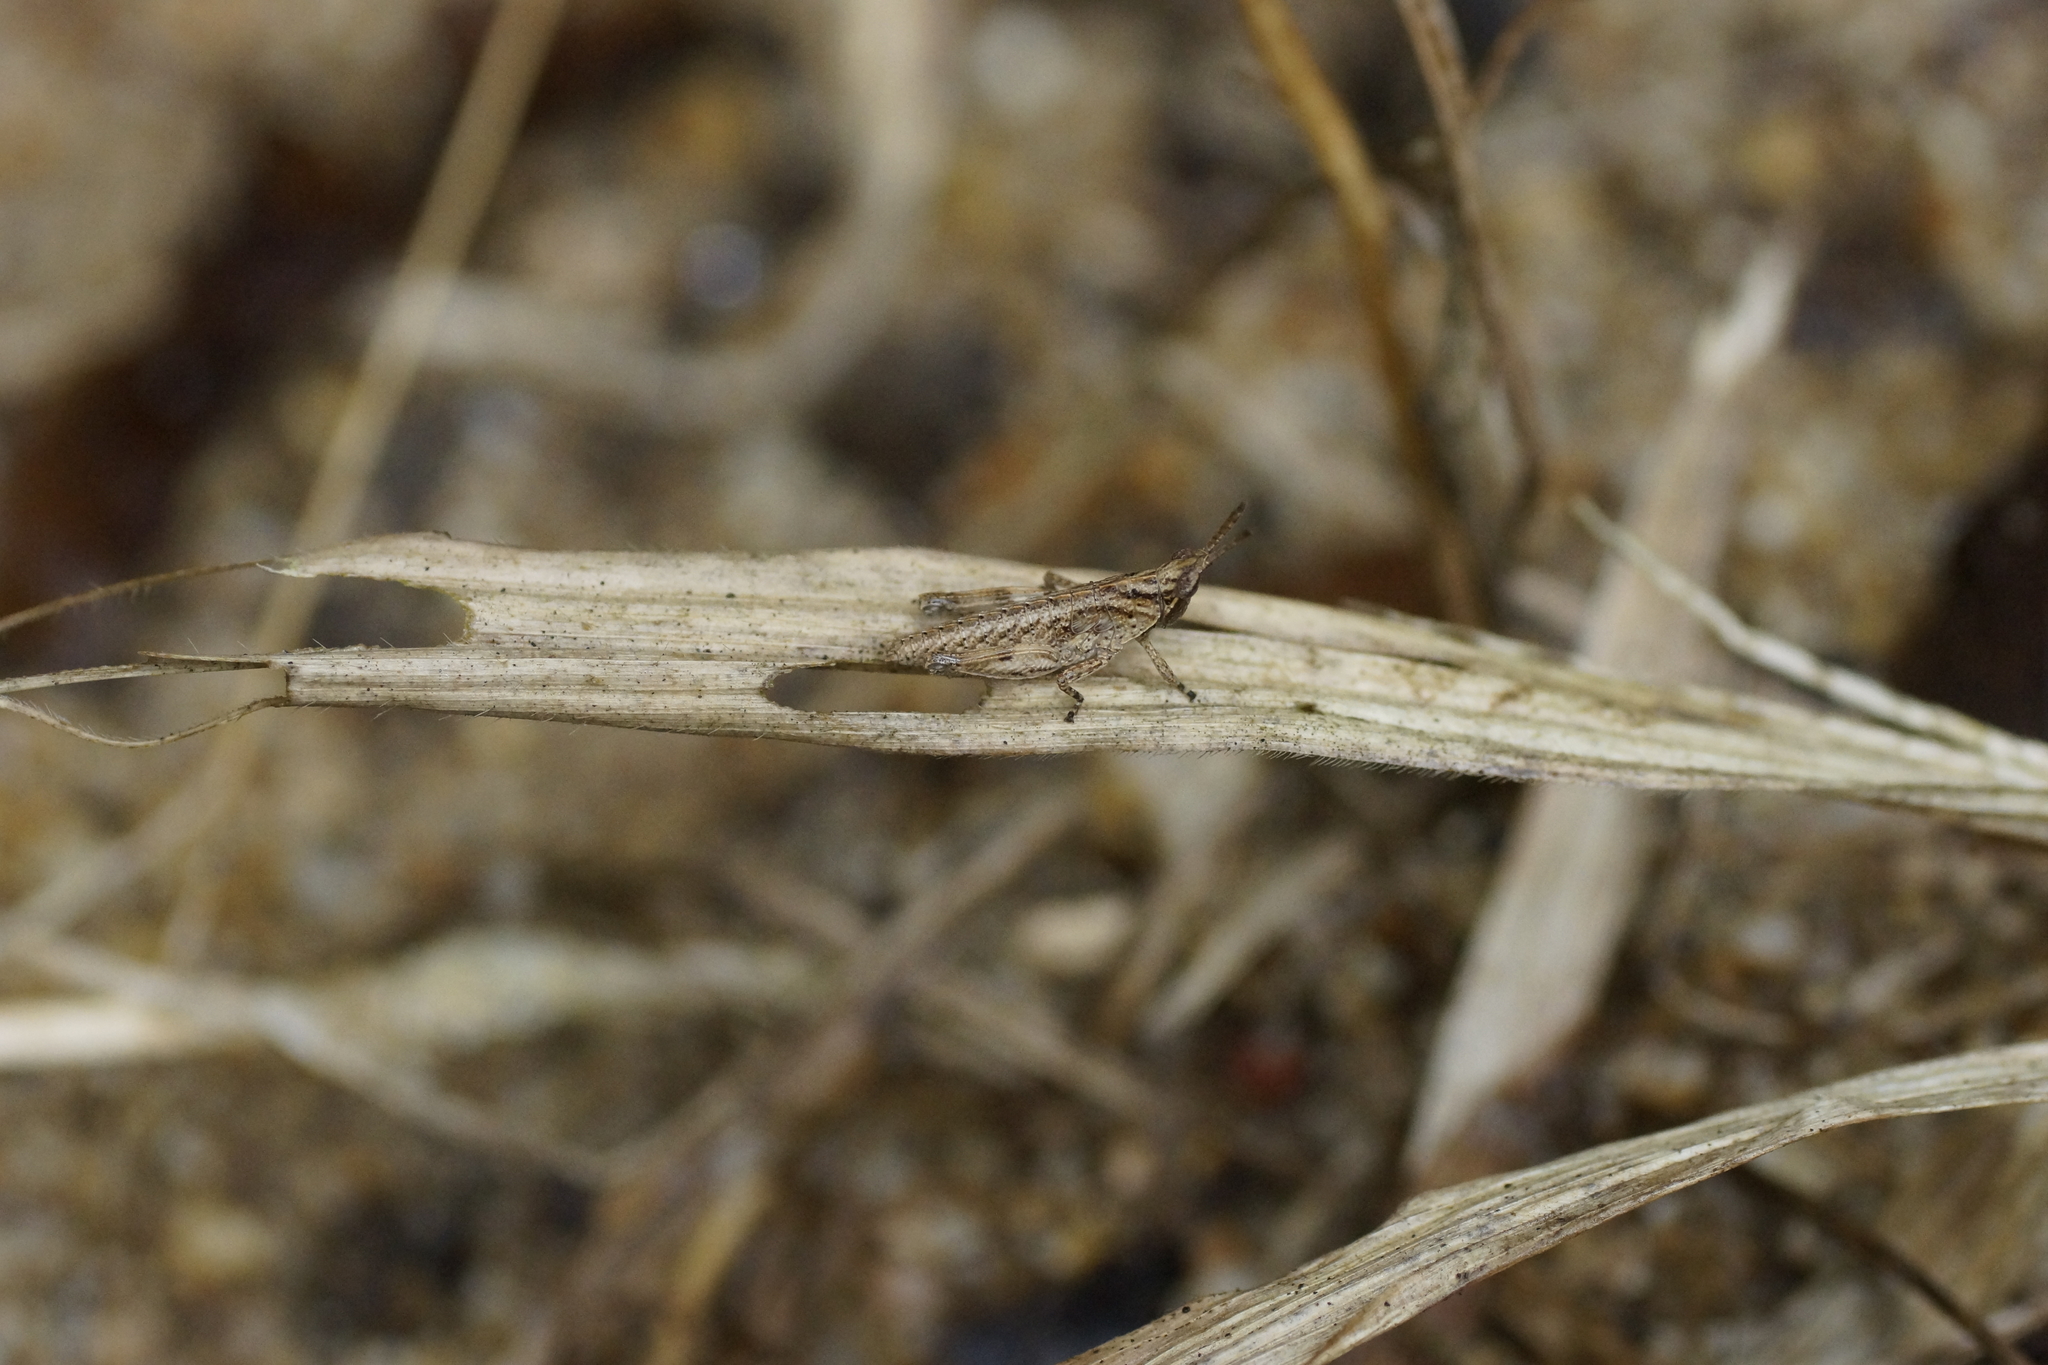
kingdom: Animalia
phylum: Arthropoda
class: Insecta
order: Orthoptera
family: Pyrgomorphidae
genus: Desmoptera
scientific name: Desmoptera truncatipennis
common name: Large forest pyrgomorph
